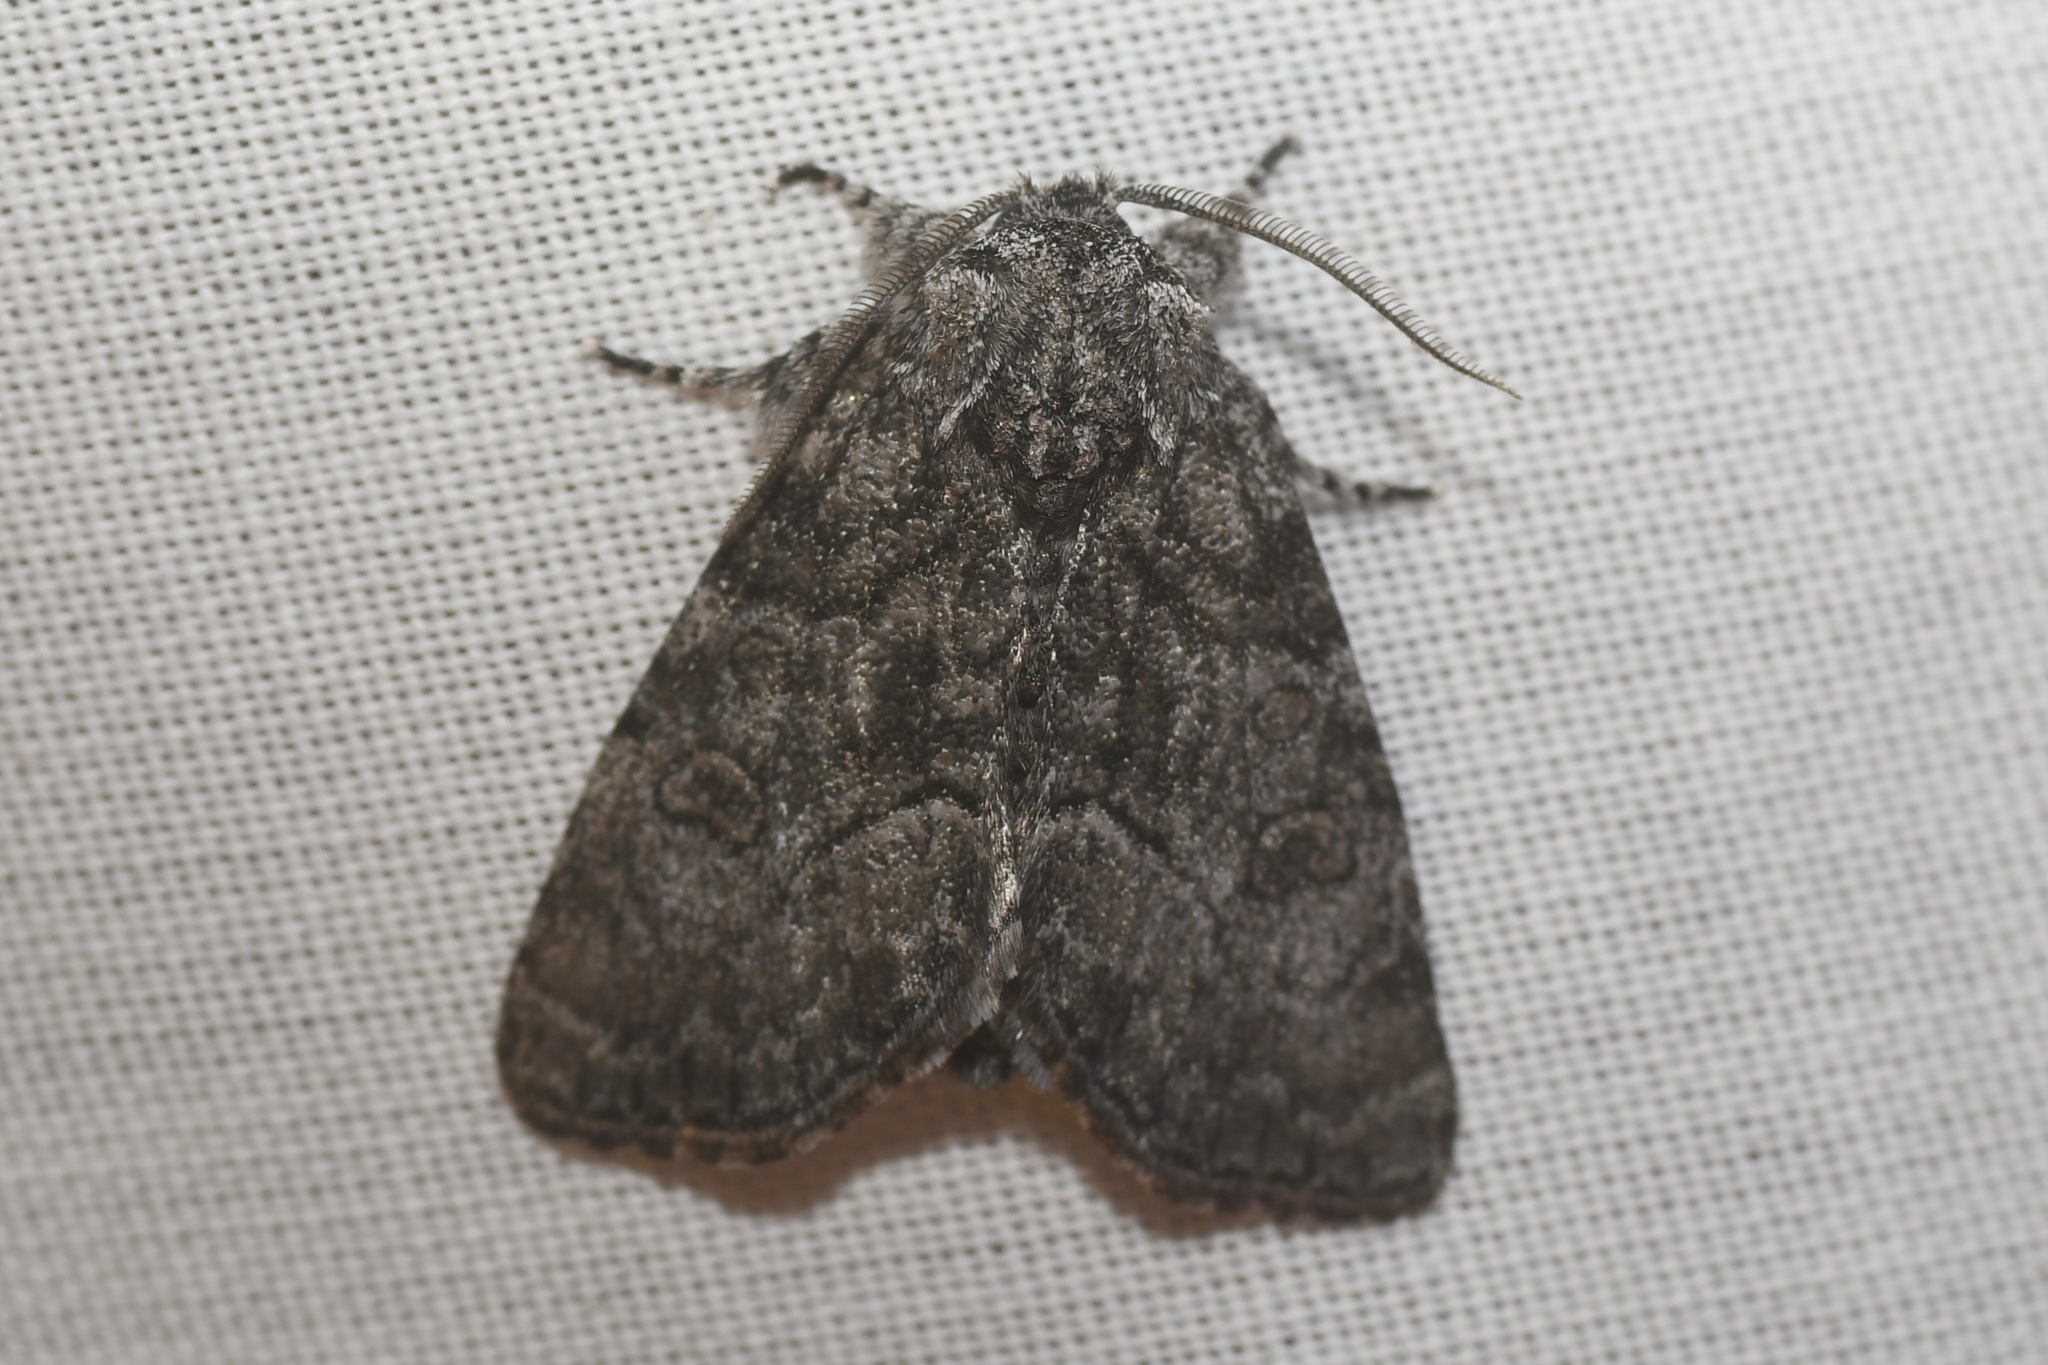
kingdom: Animalia
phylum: Arthropoda
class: Insecta
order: Lepidoptera
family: Noctuidae
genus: Raphia
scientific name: Raphia frater
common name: Brother
